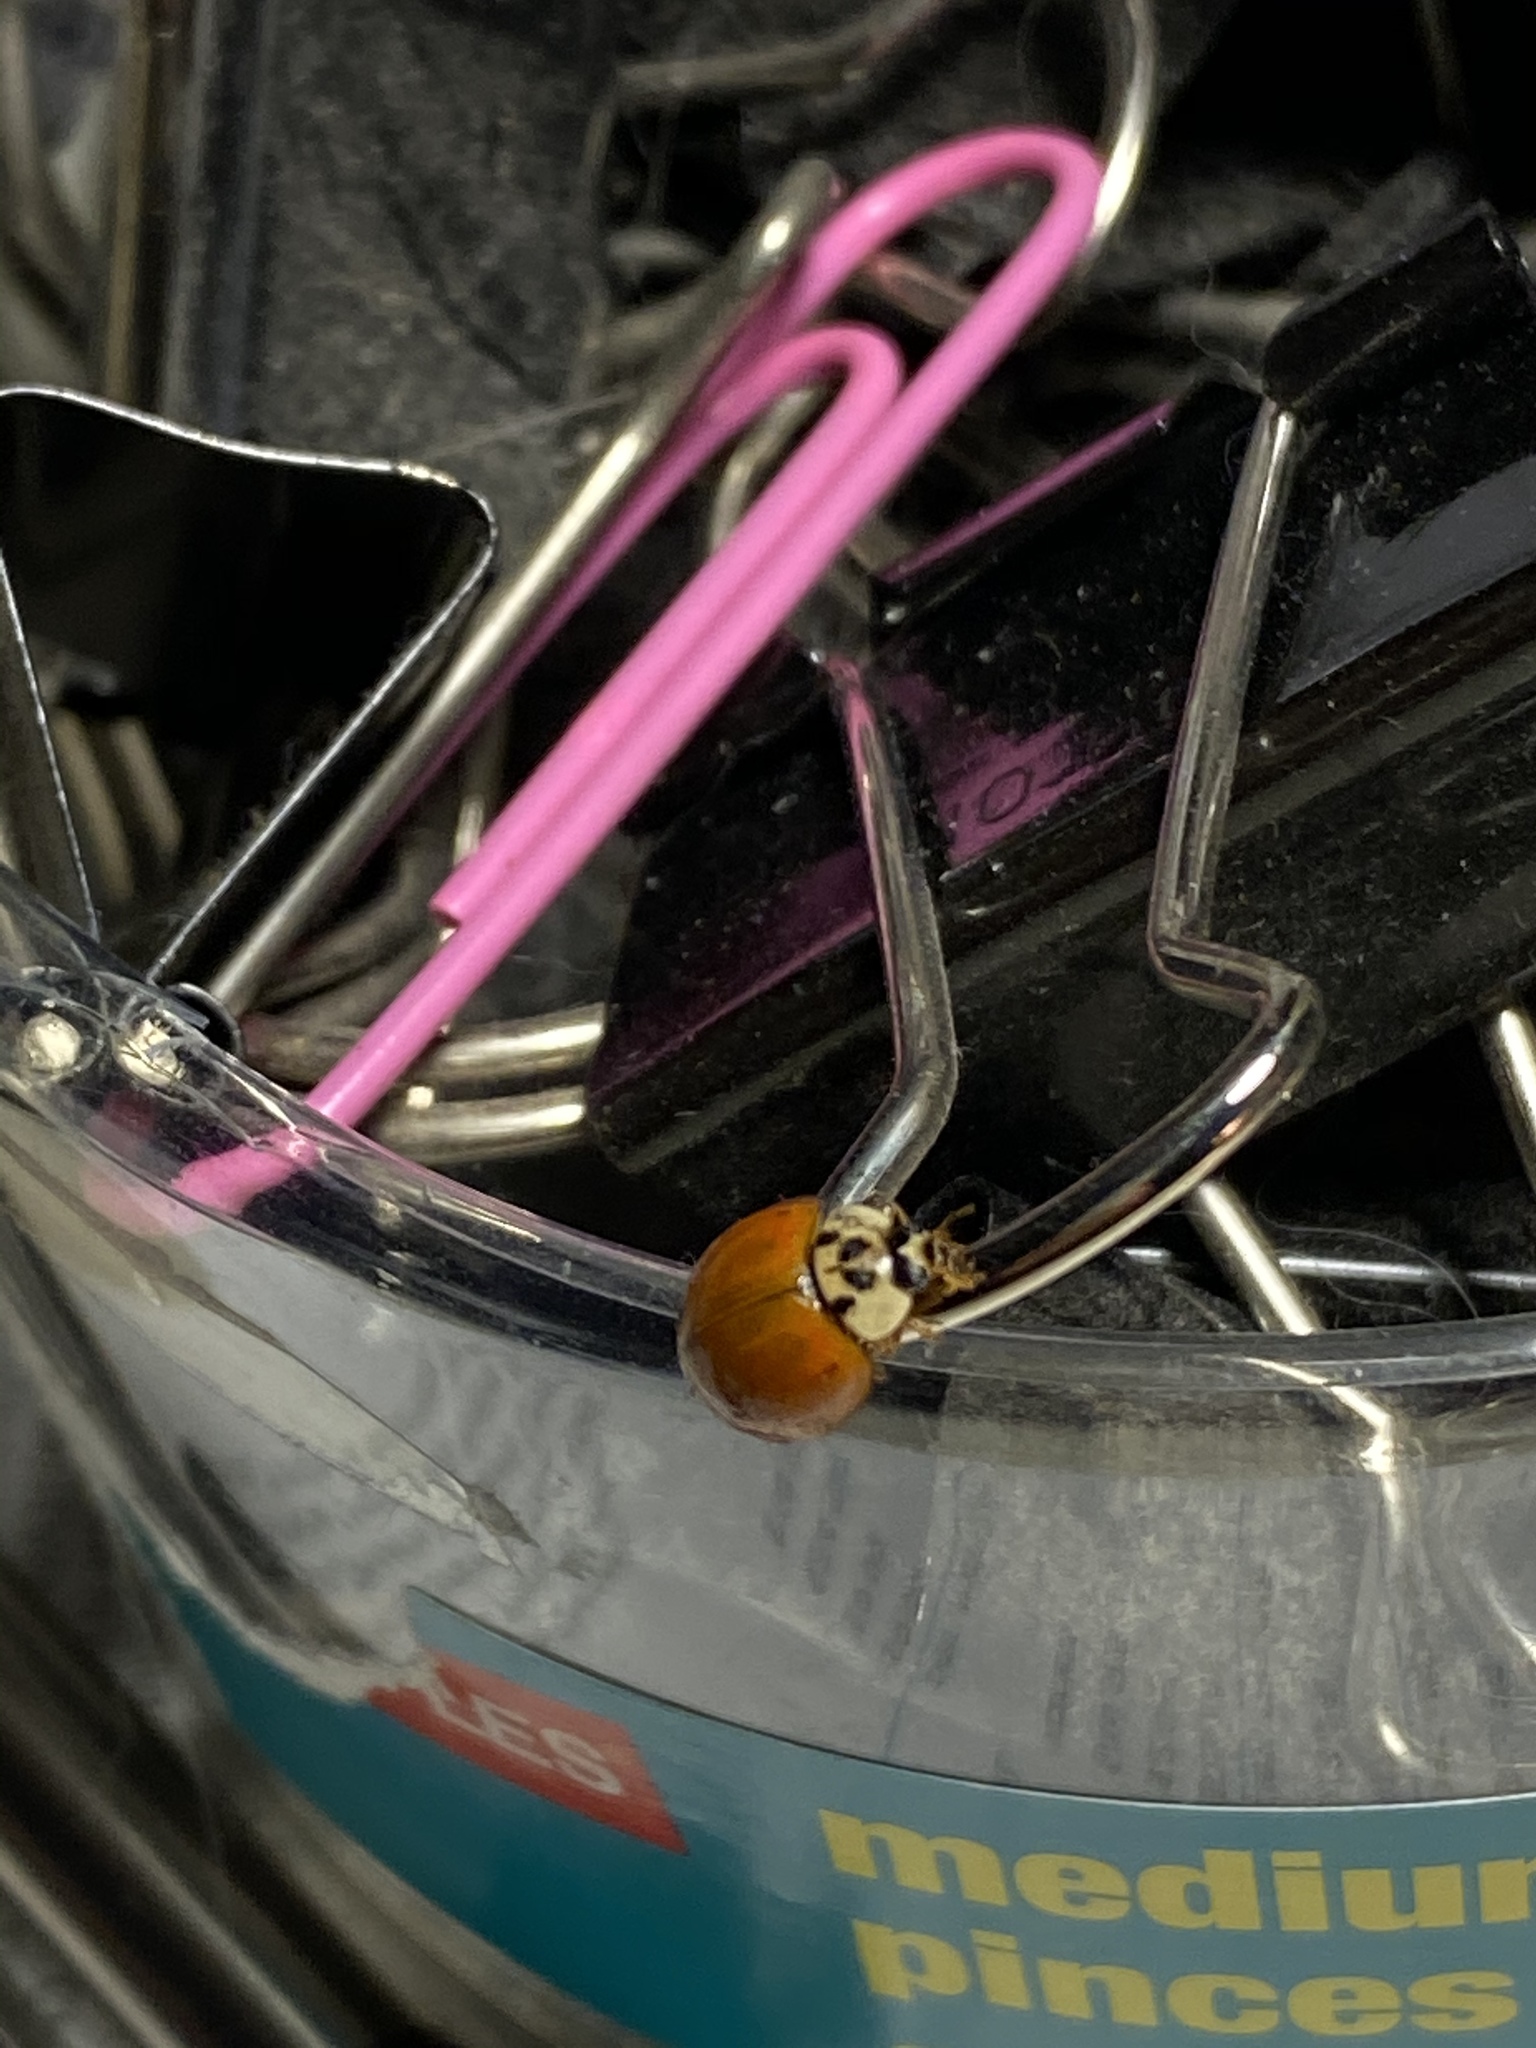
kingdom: Animalia
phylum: Arthropoda
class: Insecta
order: Coleoptera
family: Coccinellidae
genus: Harmonia
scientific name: Harmonia axyridis
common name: Harlequin ladybird
